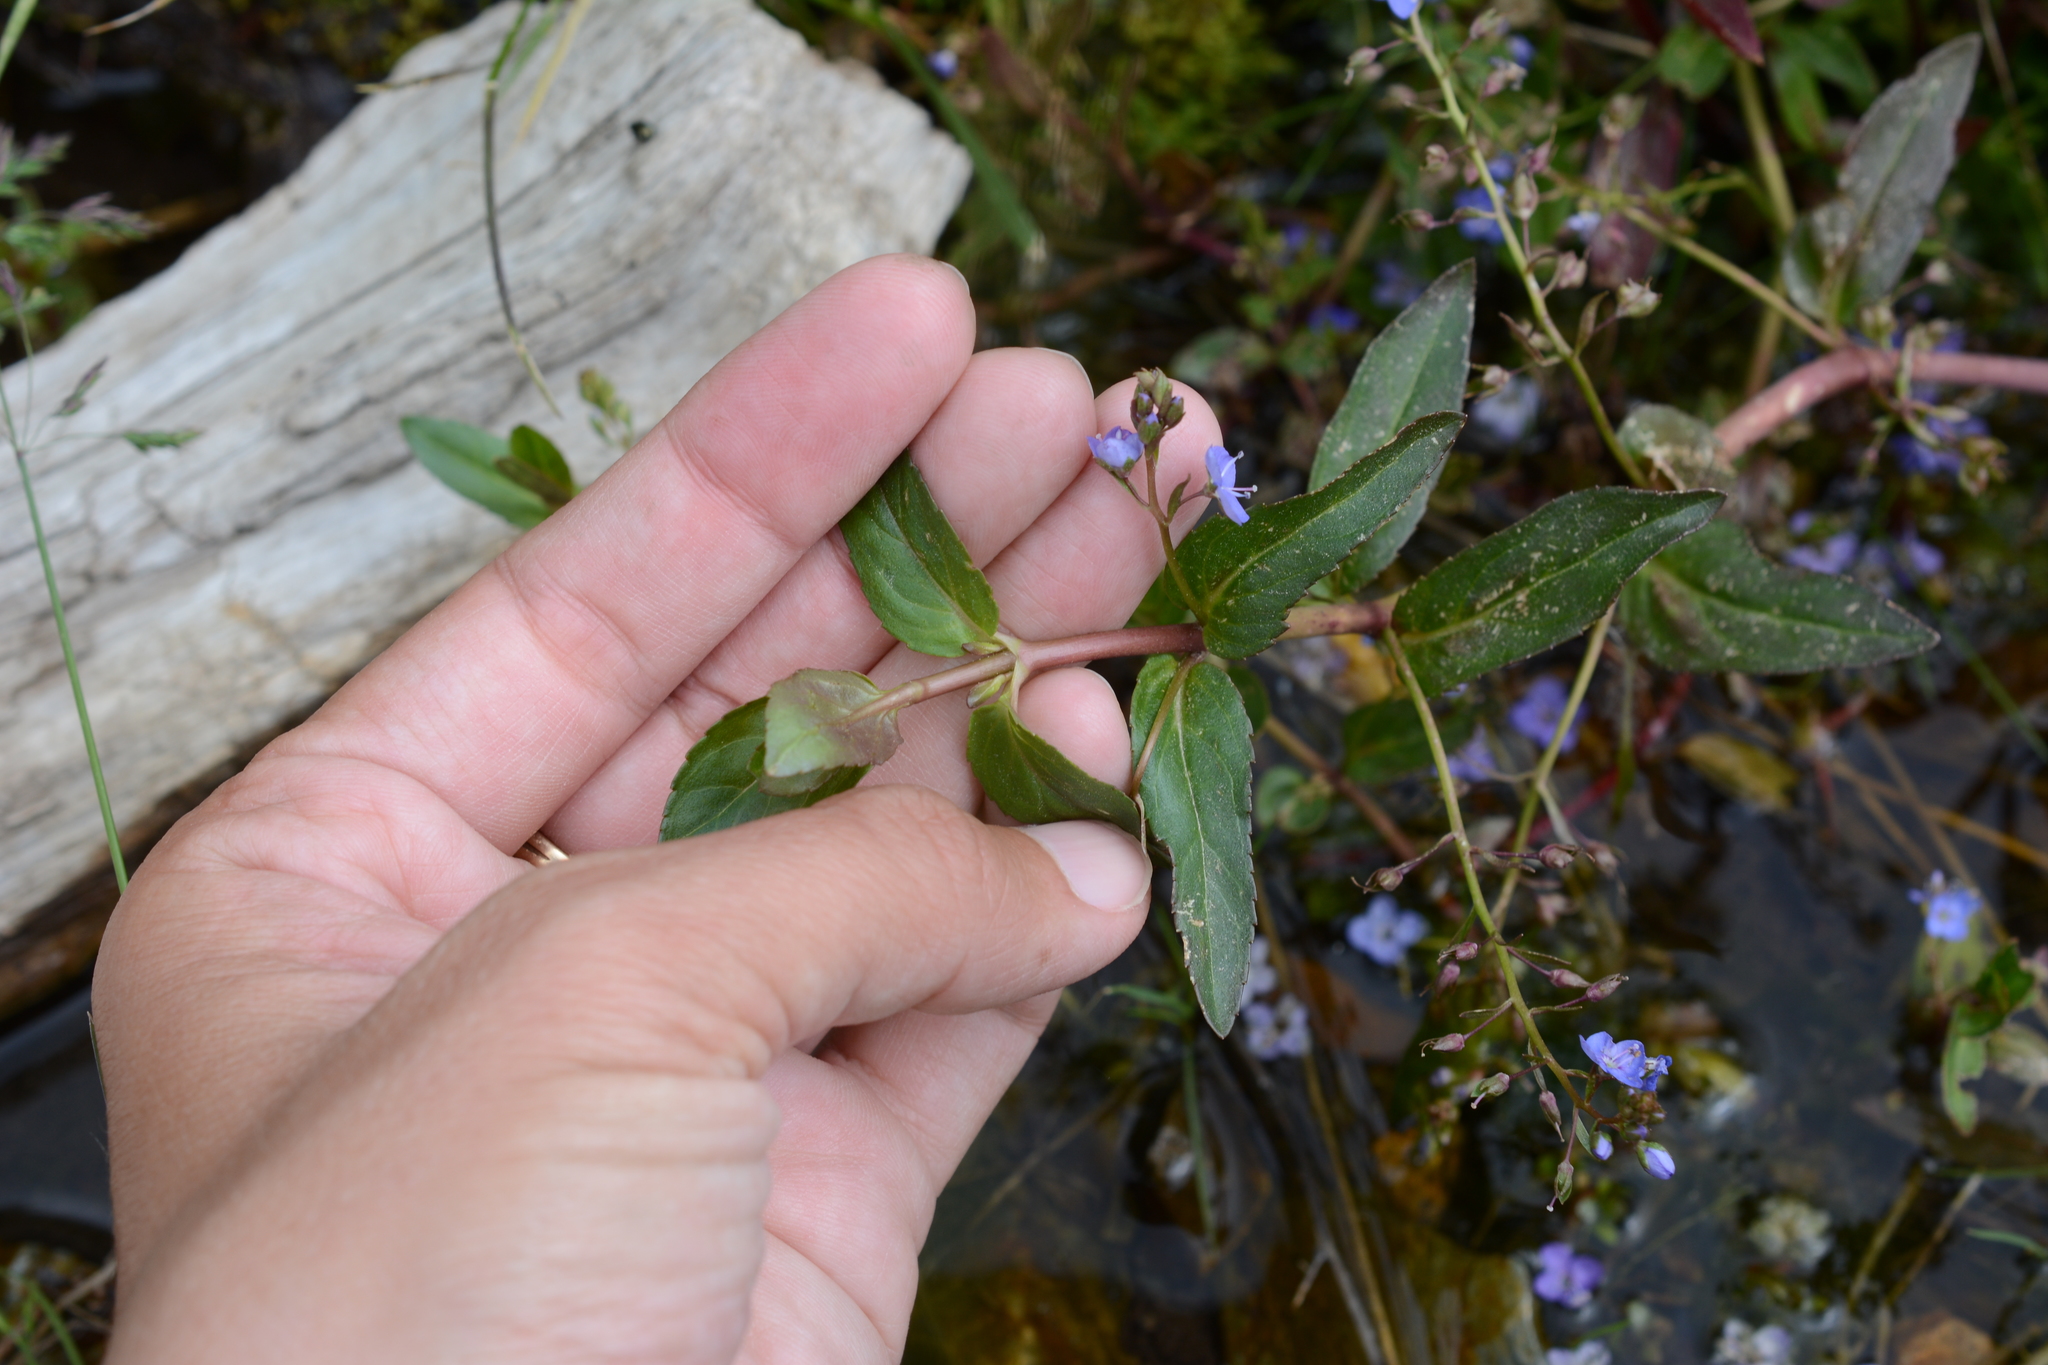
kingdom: Plantae
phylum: Tracheophyta
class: Magnoliopsida
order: Lamiales
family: Plantaginaceae
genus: Veronica
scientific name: Veronica americana
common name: American brooklime
